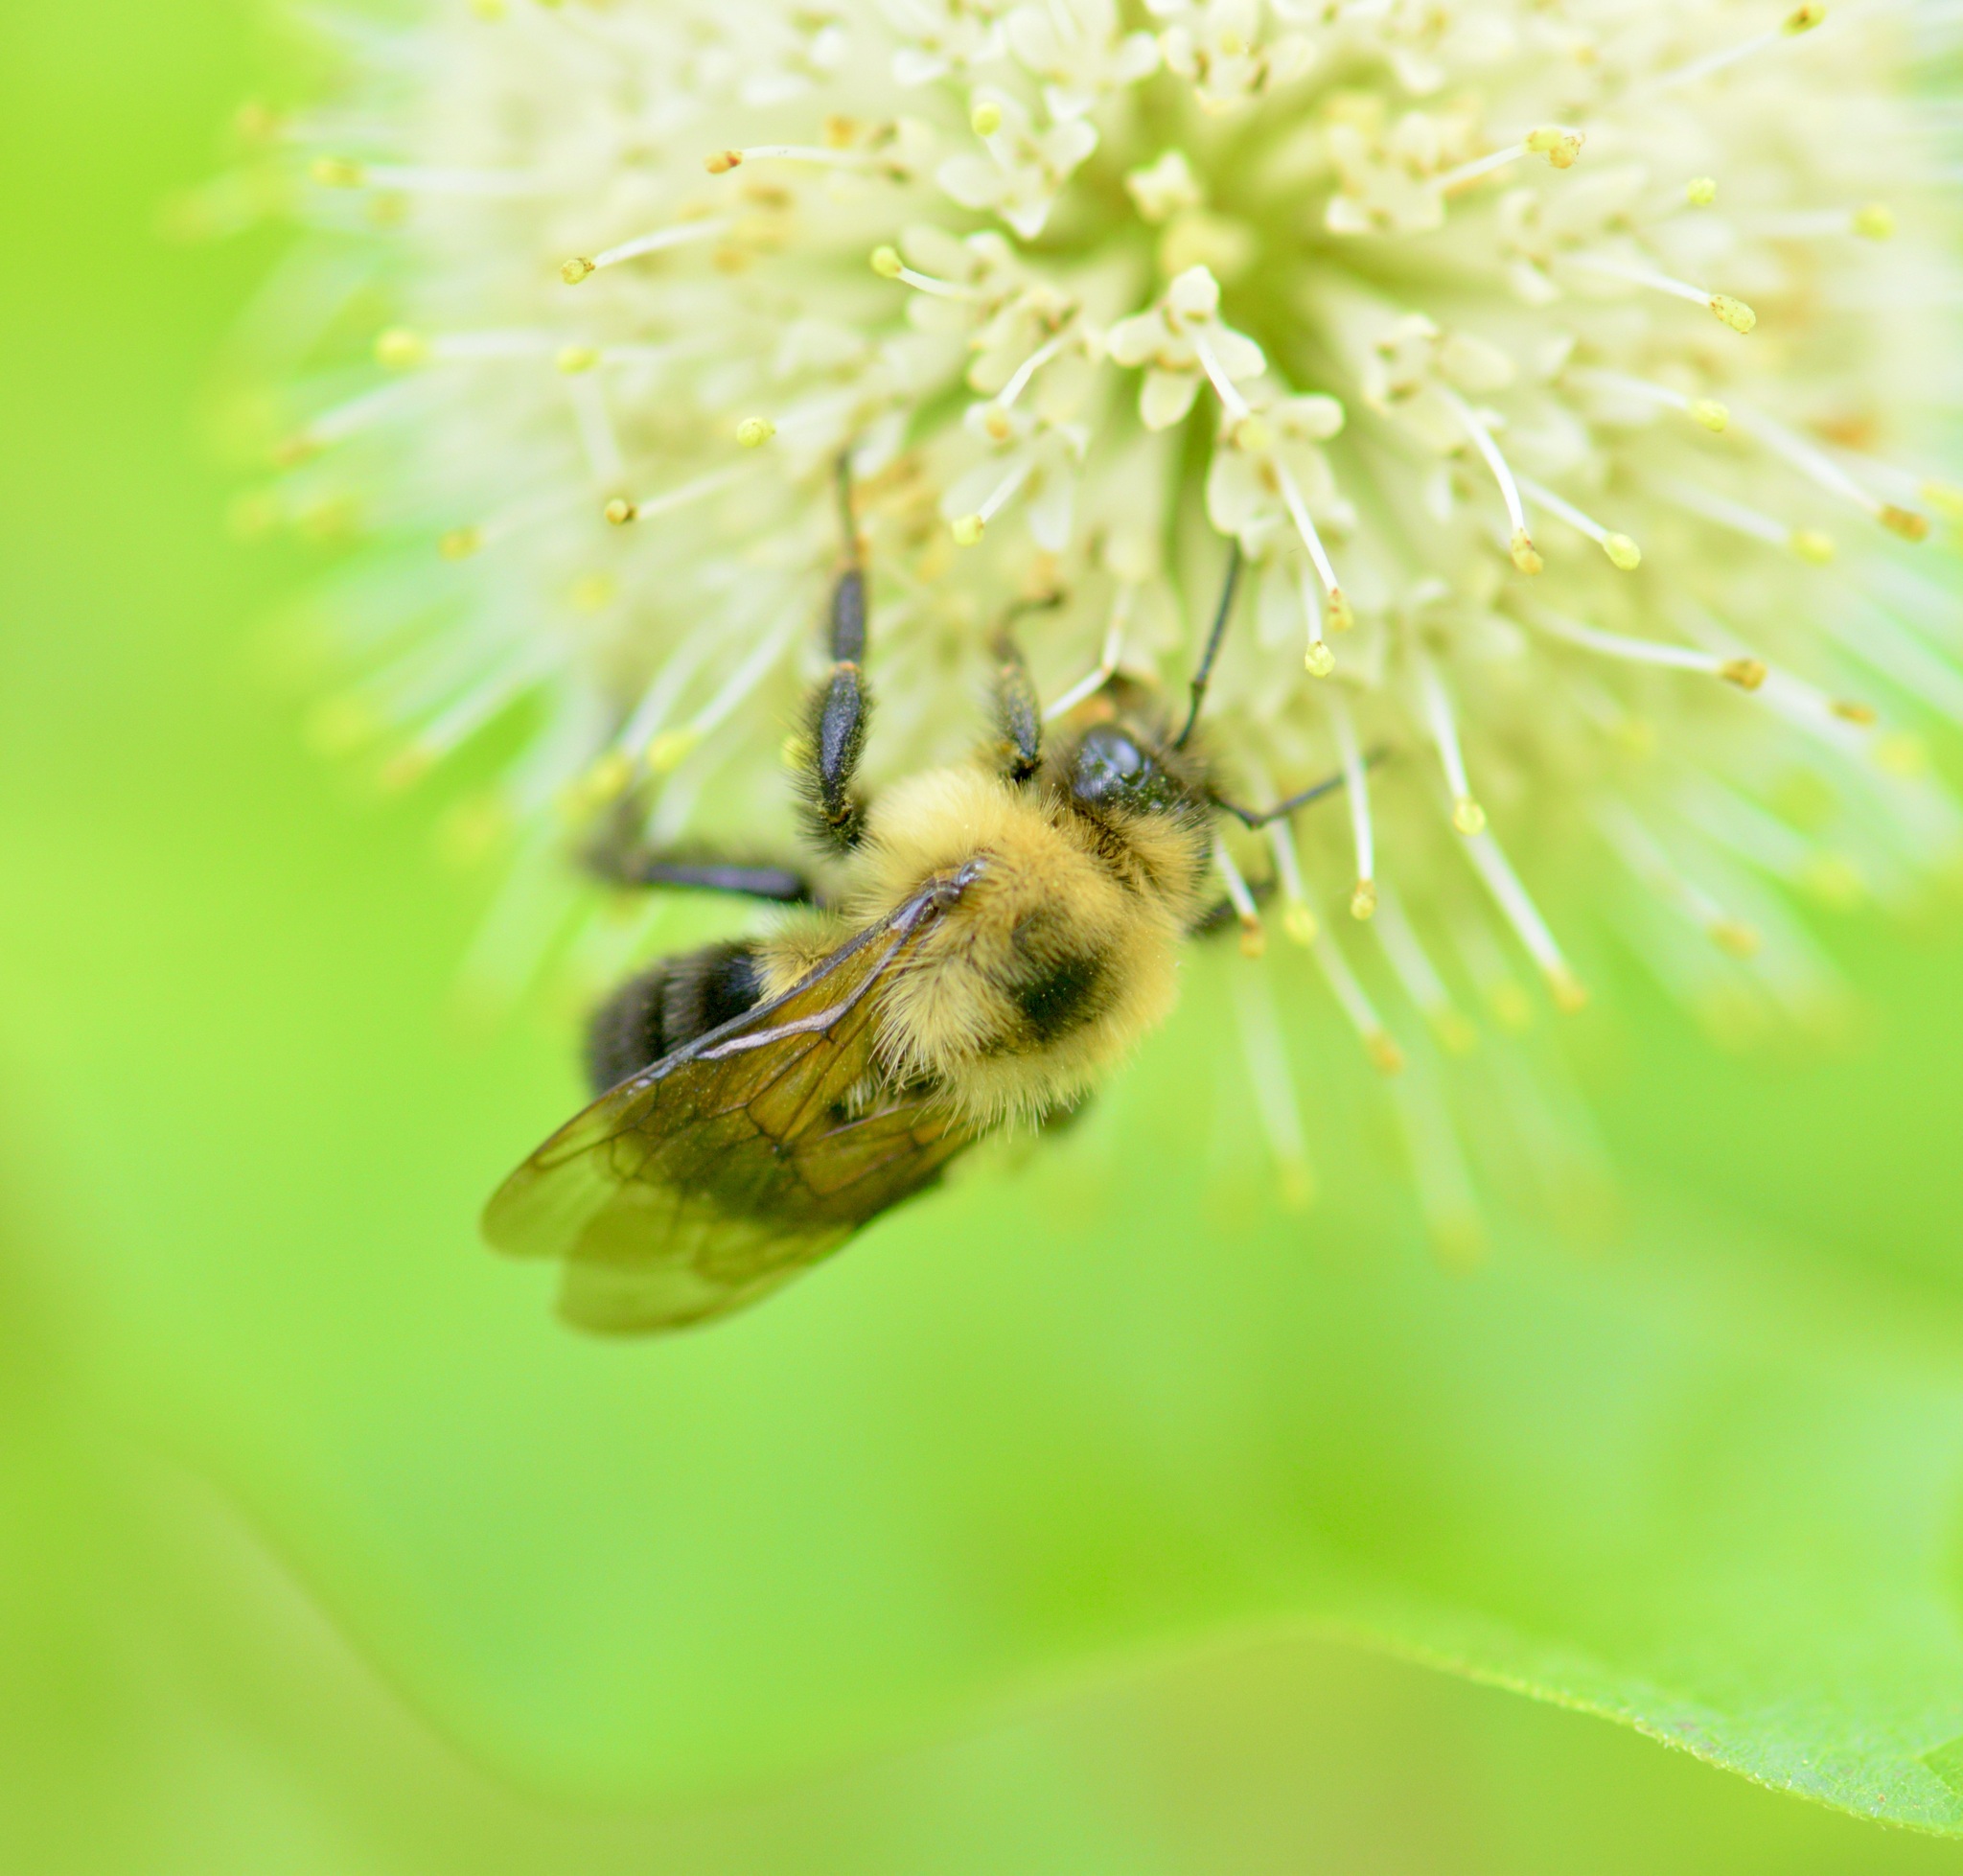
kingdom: Animalia
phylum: Arthropoda
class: Insecta
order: Hymenoptera
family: Apidae
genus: Bombus
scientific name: Bombus bimaculatus
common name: Two-spotted bumble bee
